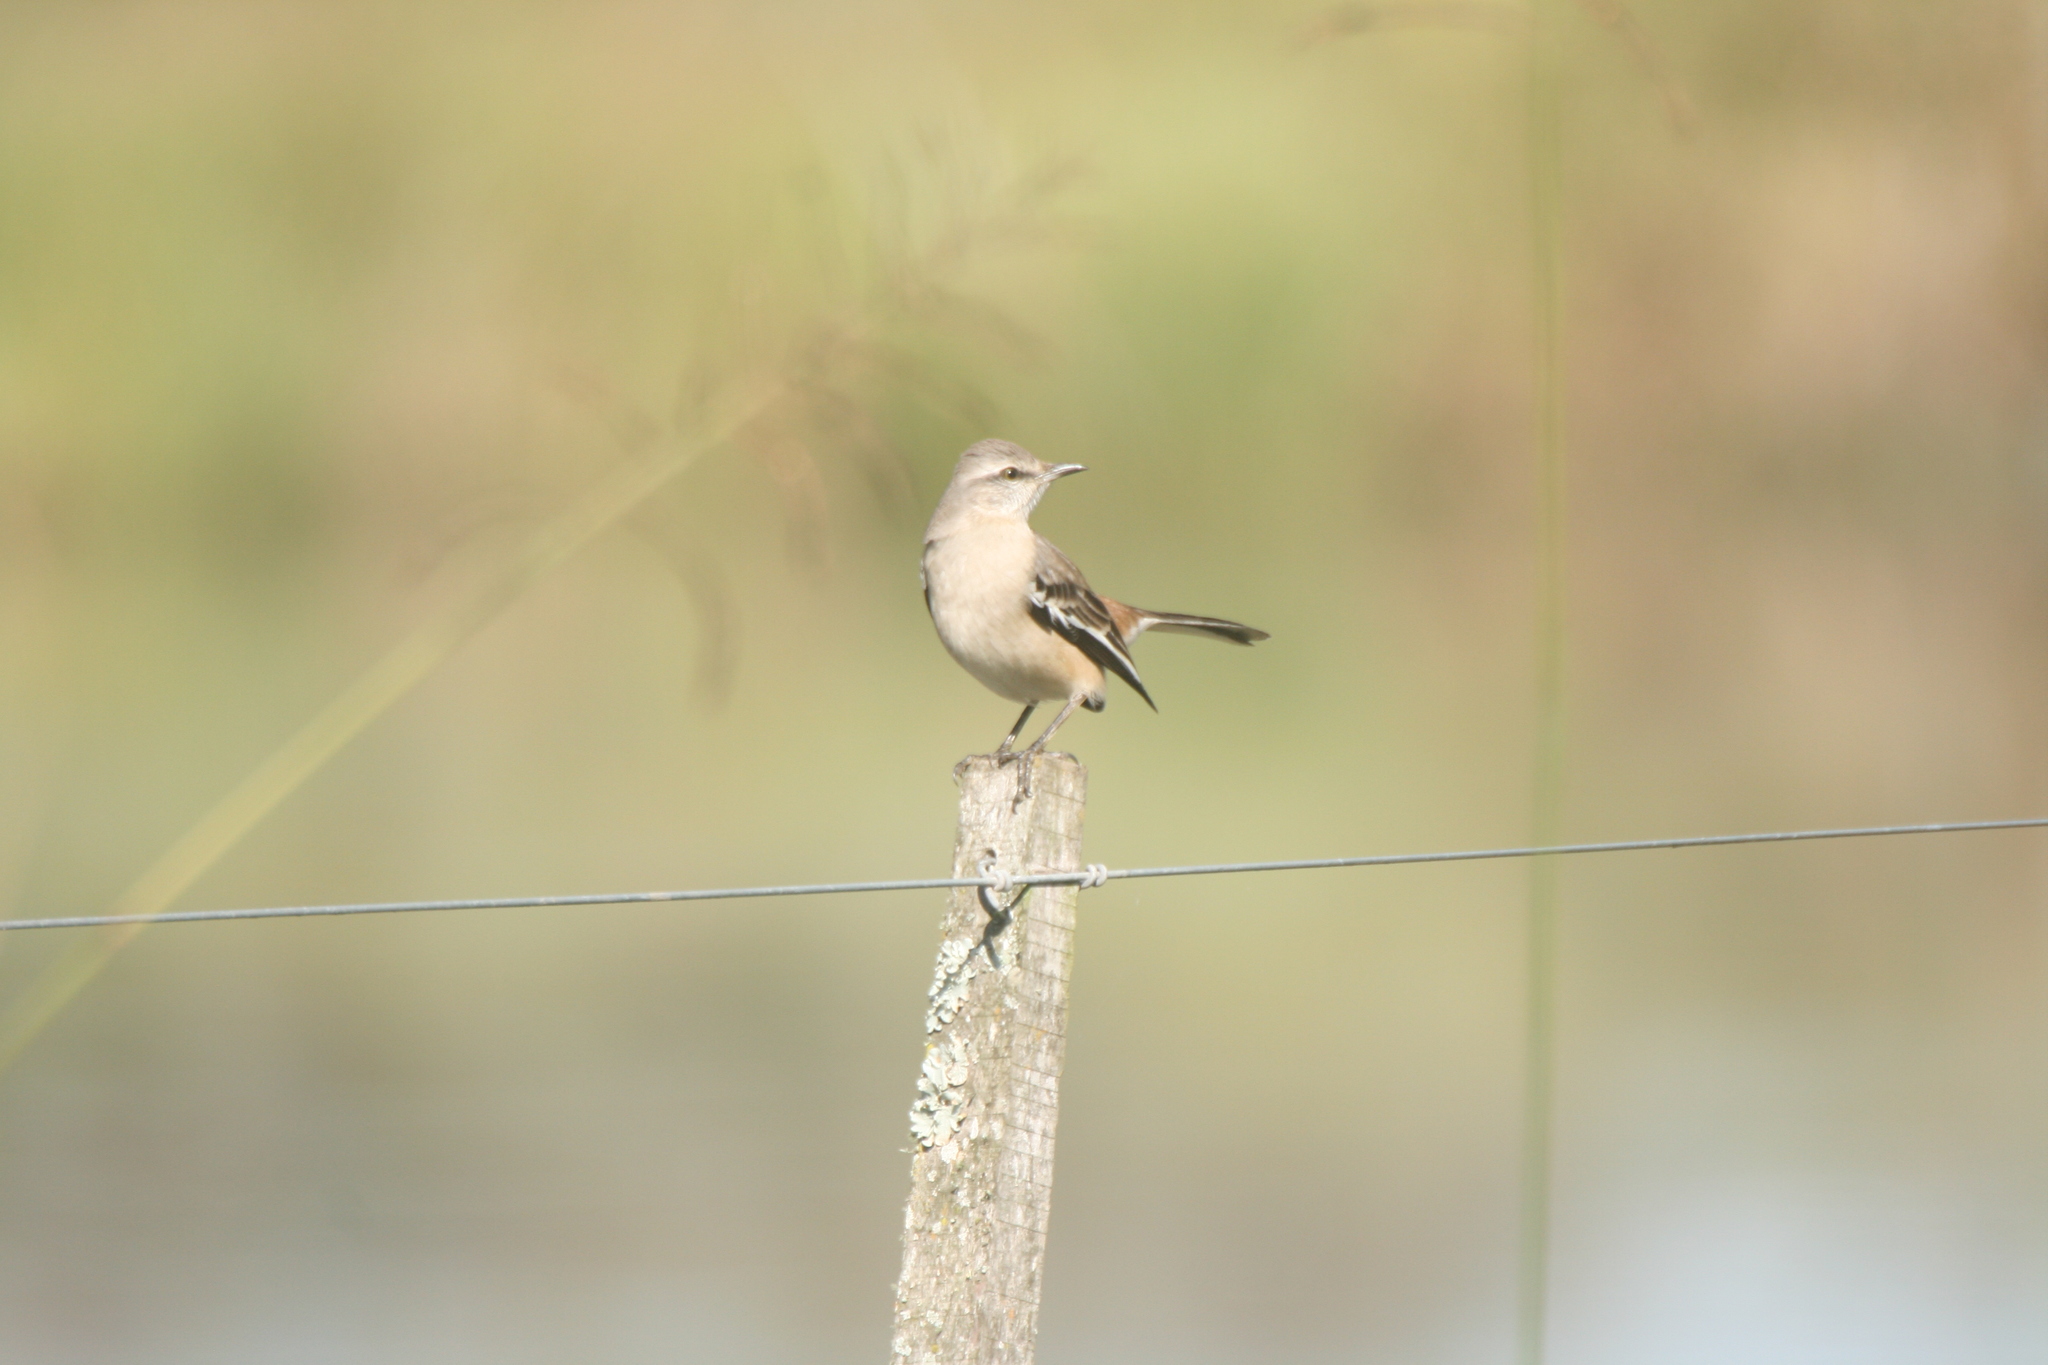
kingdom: Animalia
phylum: Chordata
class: Aves
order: Passeriformes
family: Mimidae
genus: Mimus
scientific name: Mimus triurus
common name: White-banded mockingbird
